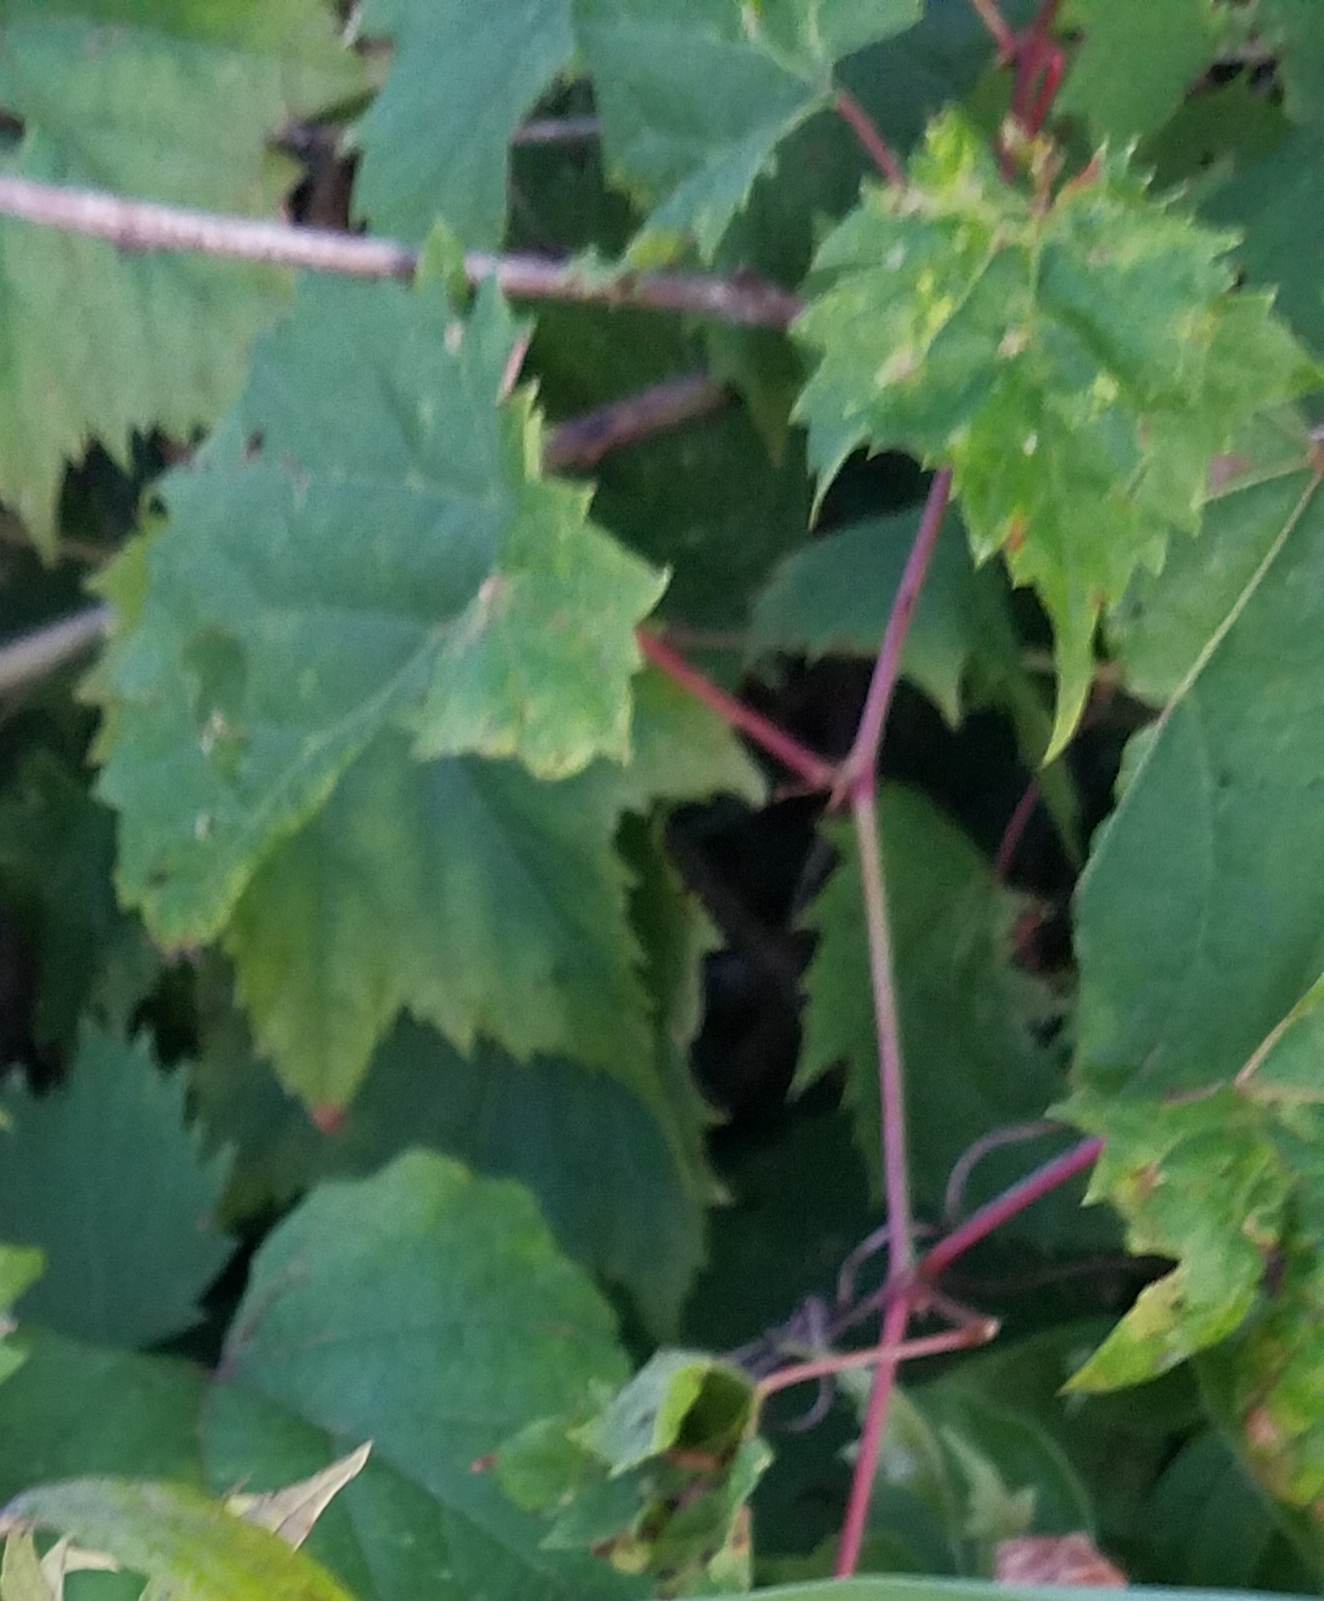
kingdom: Plantae
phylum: Tracheophyta
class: Magnoliopsida
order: Vitales
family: Vitaceae
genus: Vitis
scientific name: Vitis riparia
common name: Frost grape
